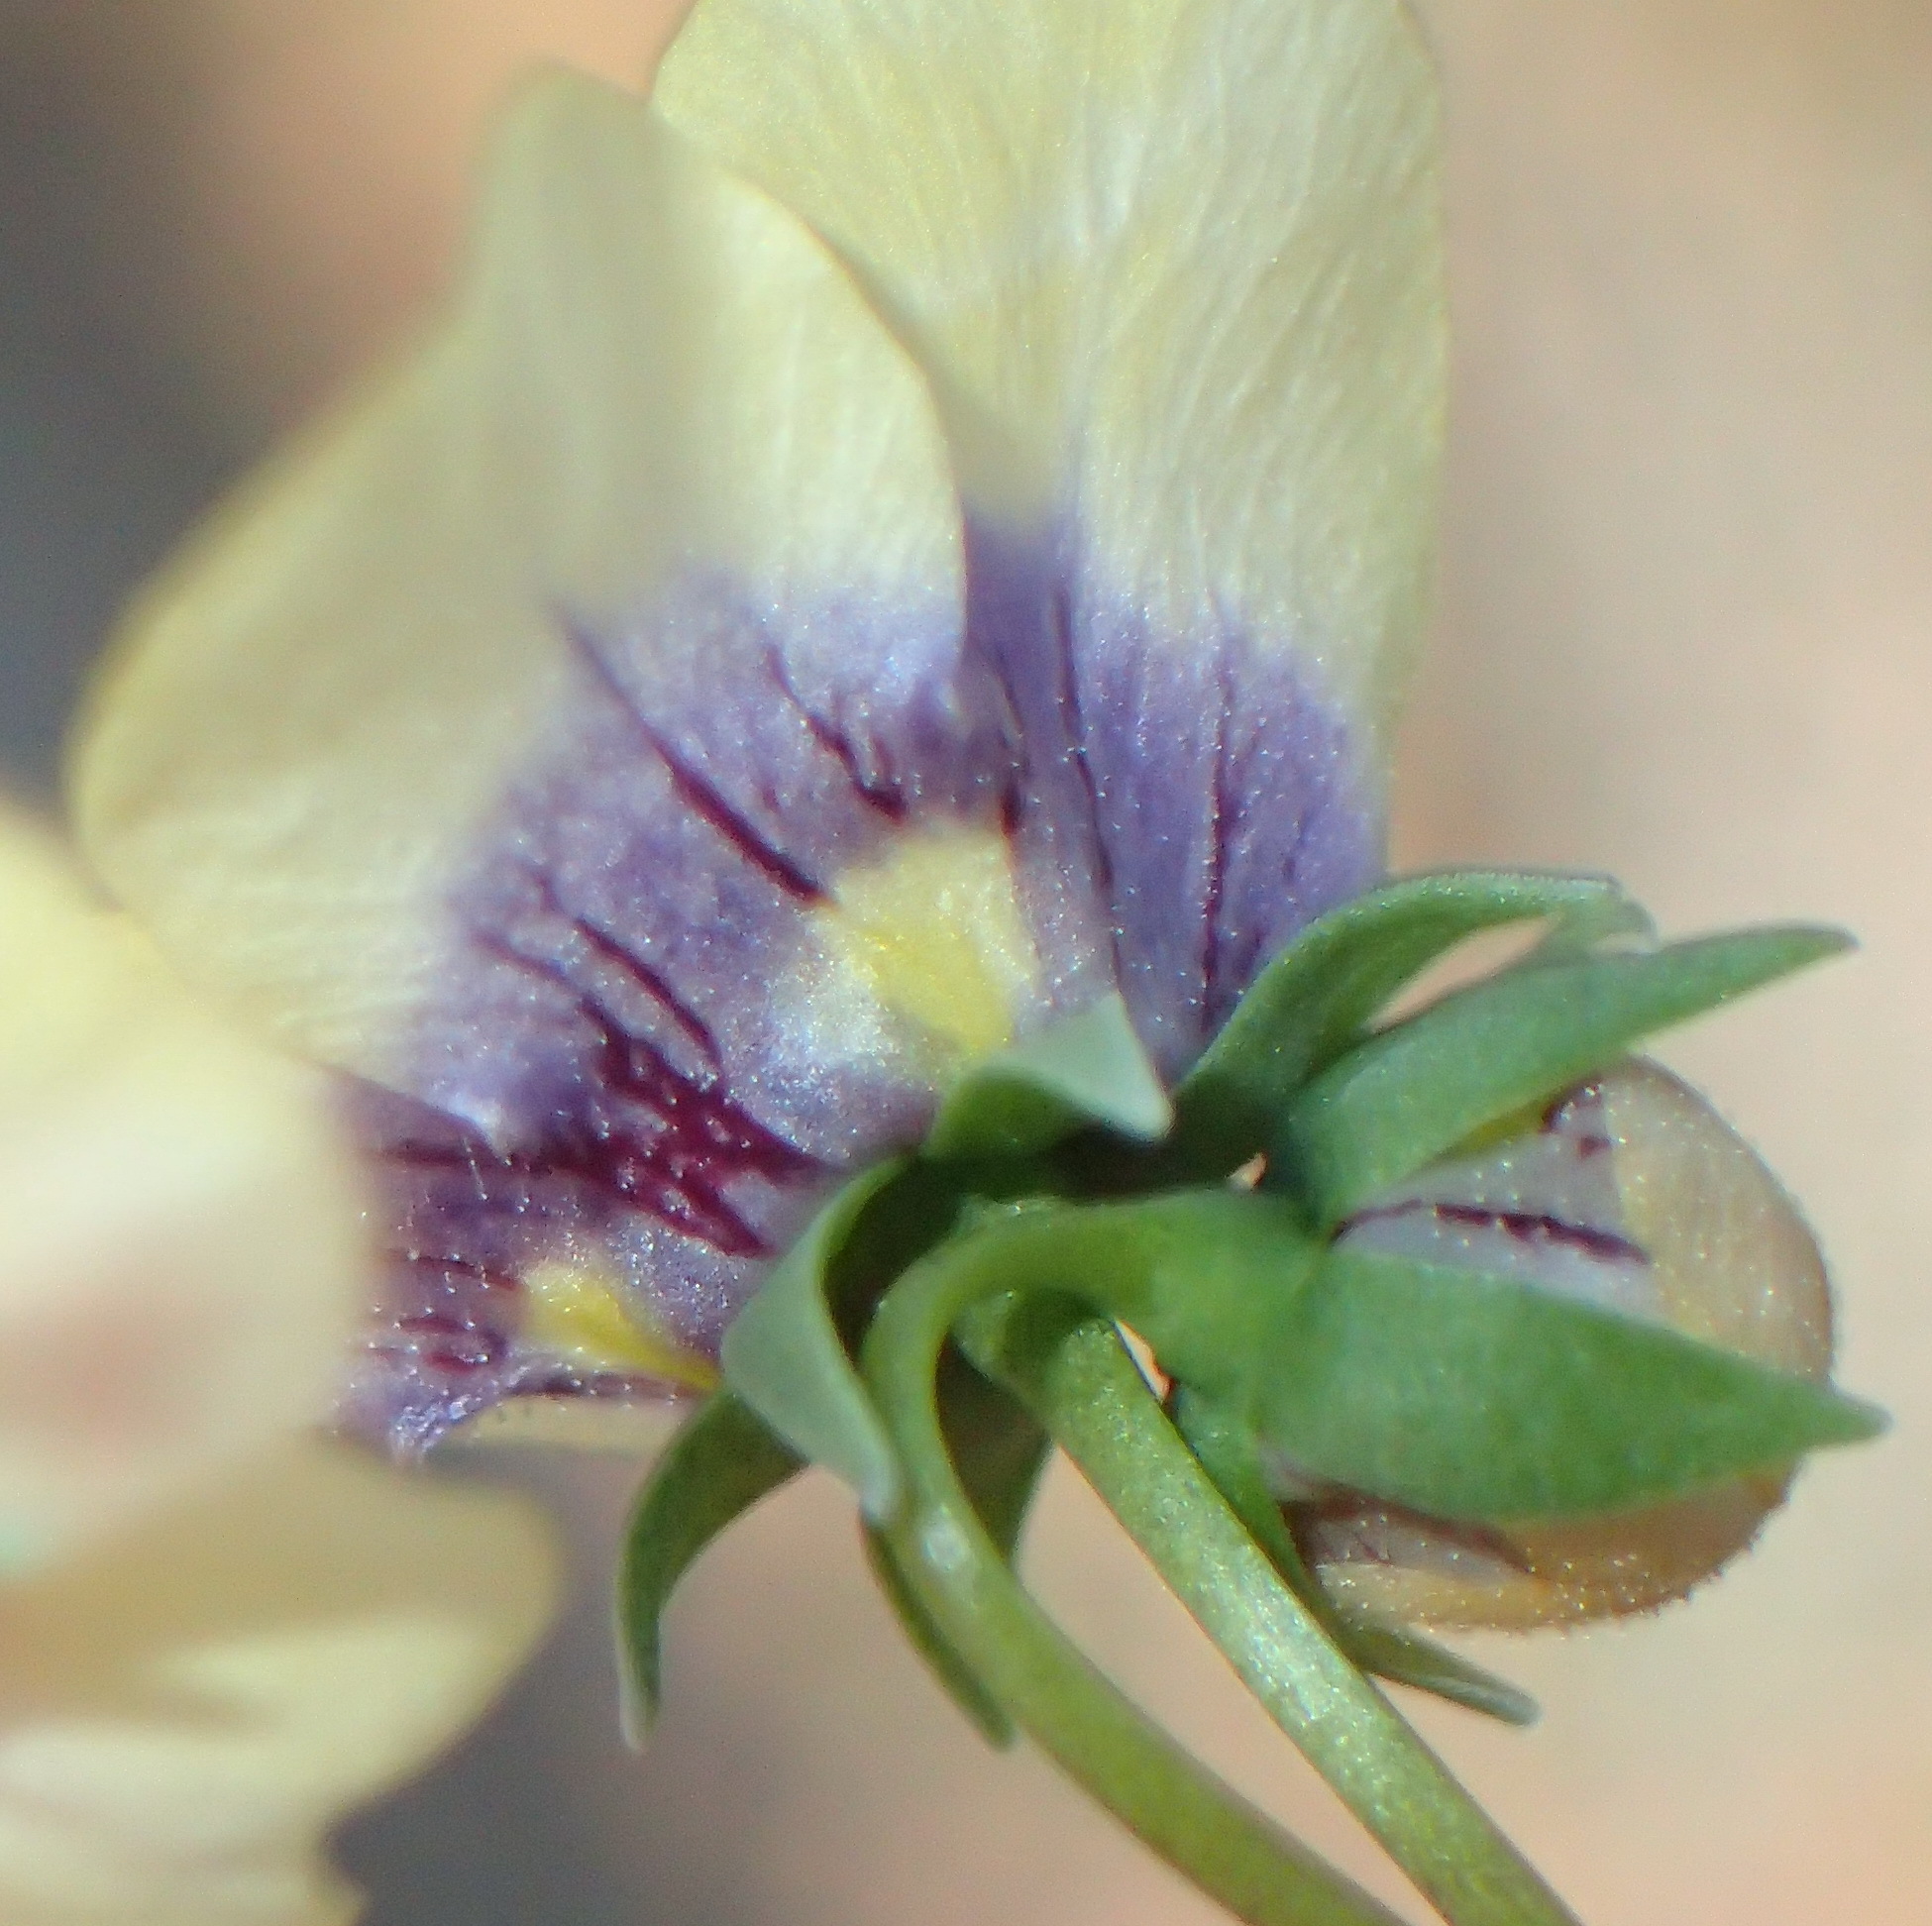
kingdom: Plantae
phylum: Tracheophyta
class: Magnoliopsida
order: Lamiales
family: Scrophulariaceae
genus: Diascia
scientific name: Diascia bicolor
